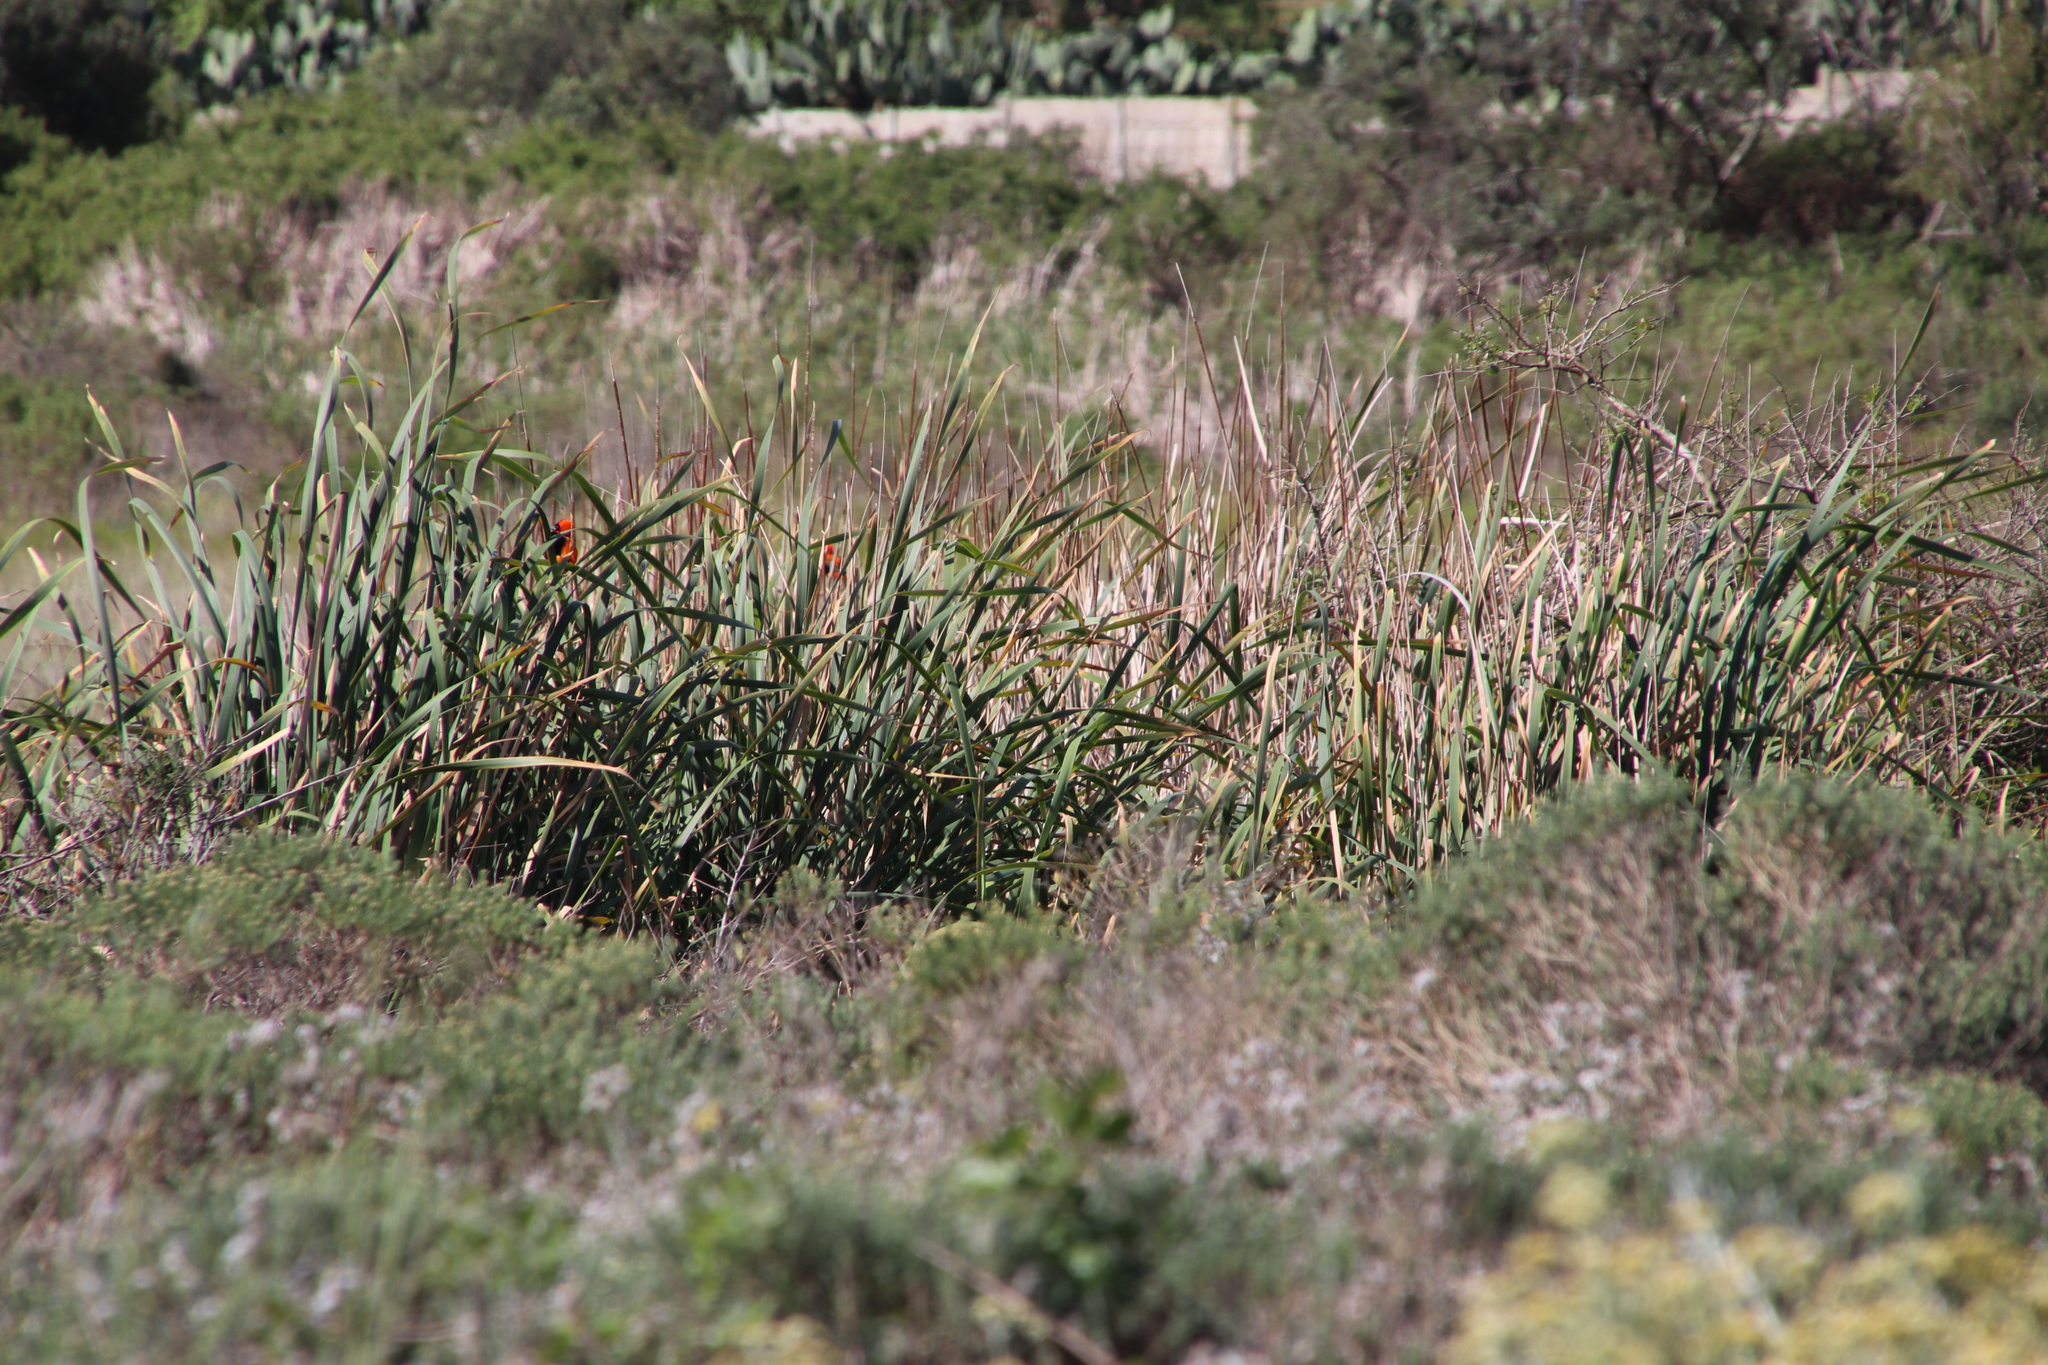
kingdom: Plantae
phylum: Tracheophyta
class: Liliopsida
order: Poales
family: Typhaceae
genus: Typha
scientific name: Typha capensis
